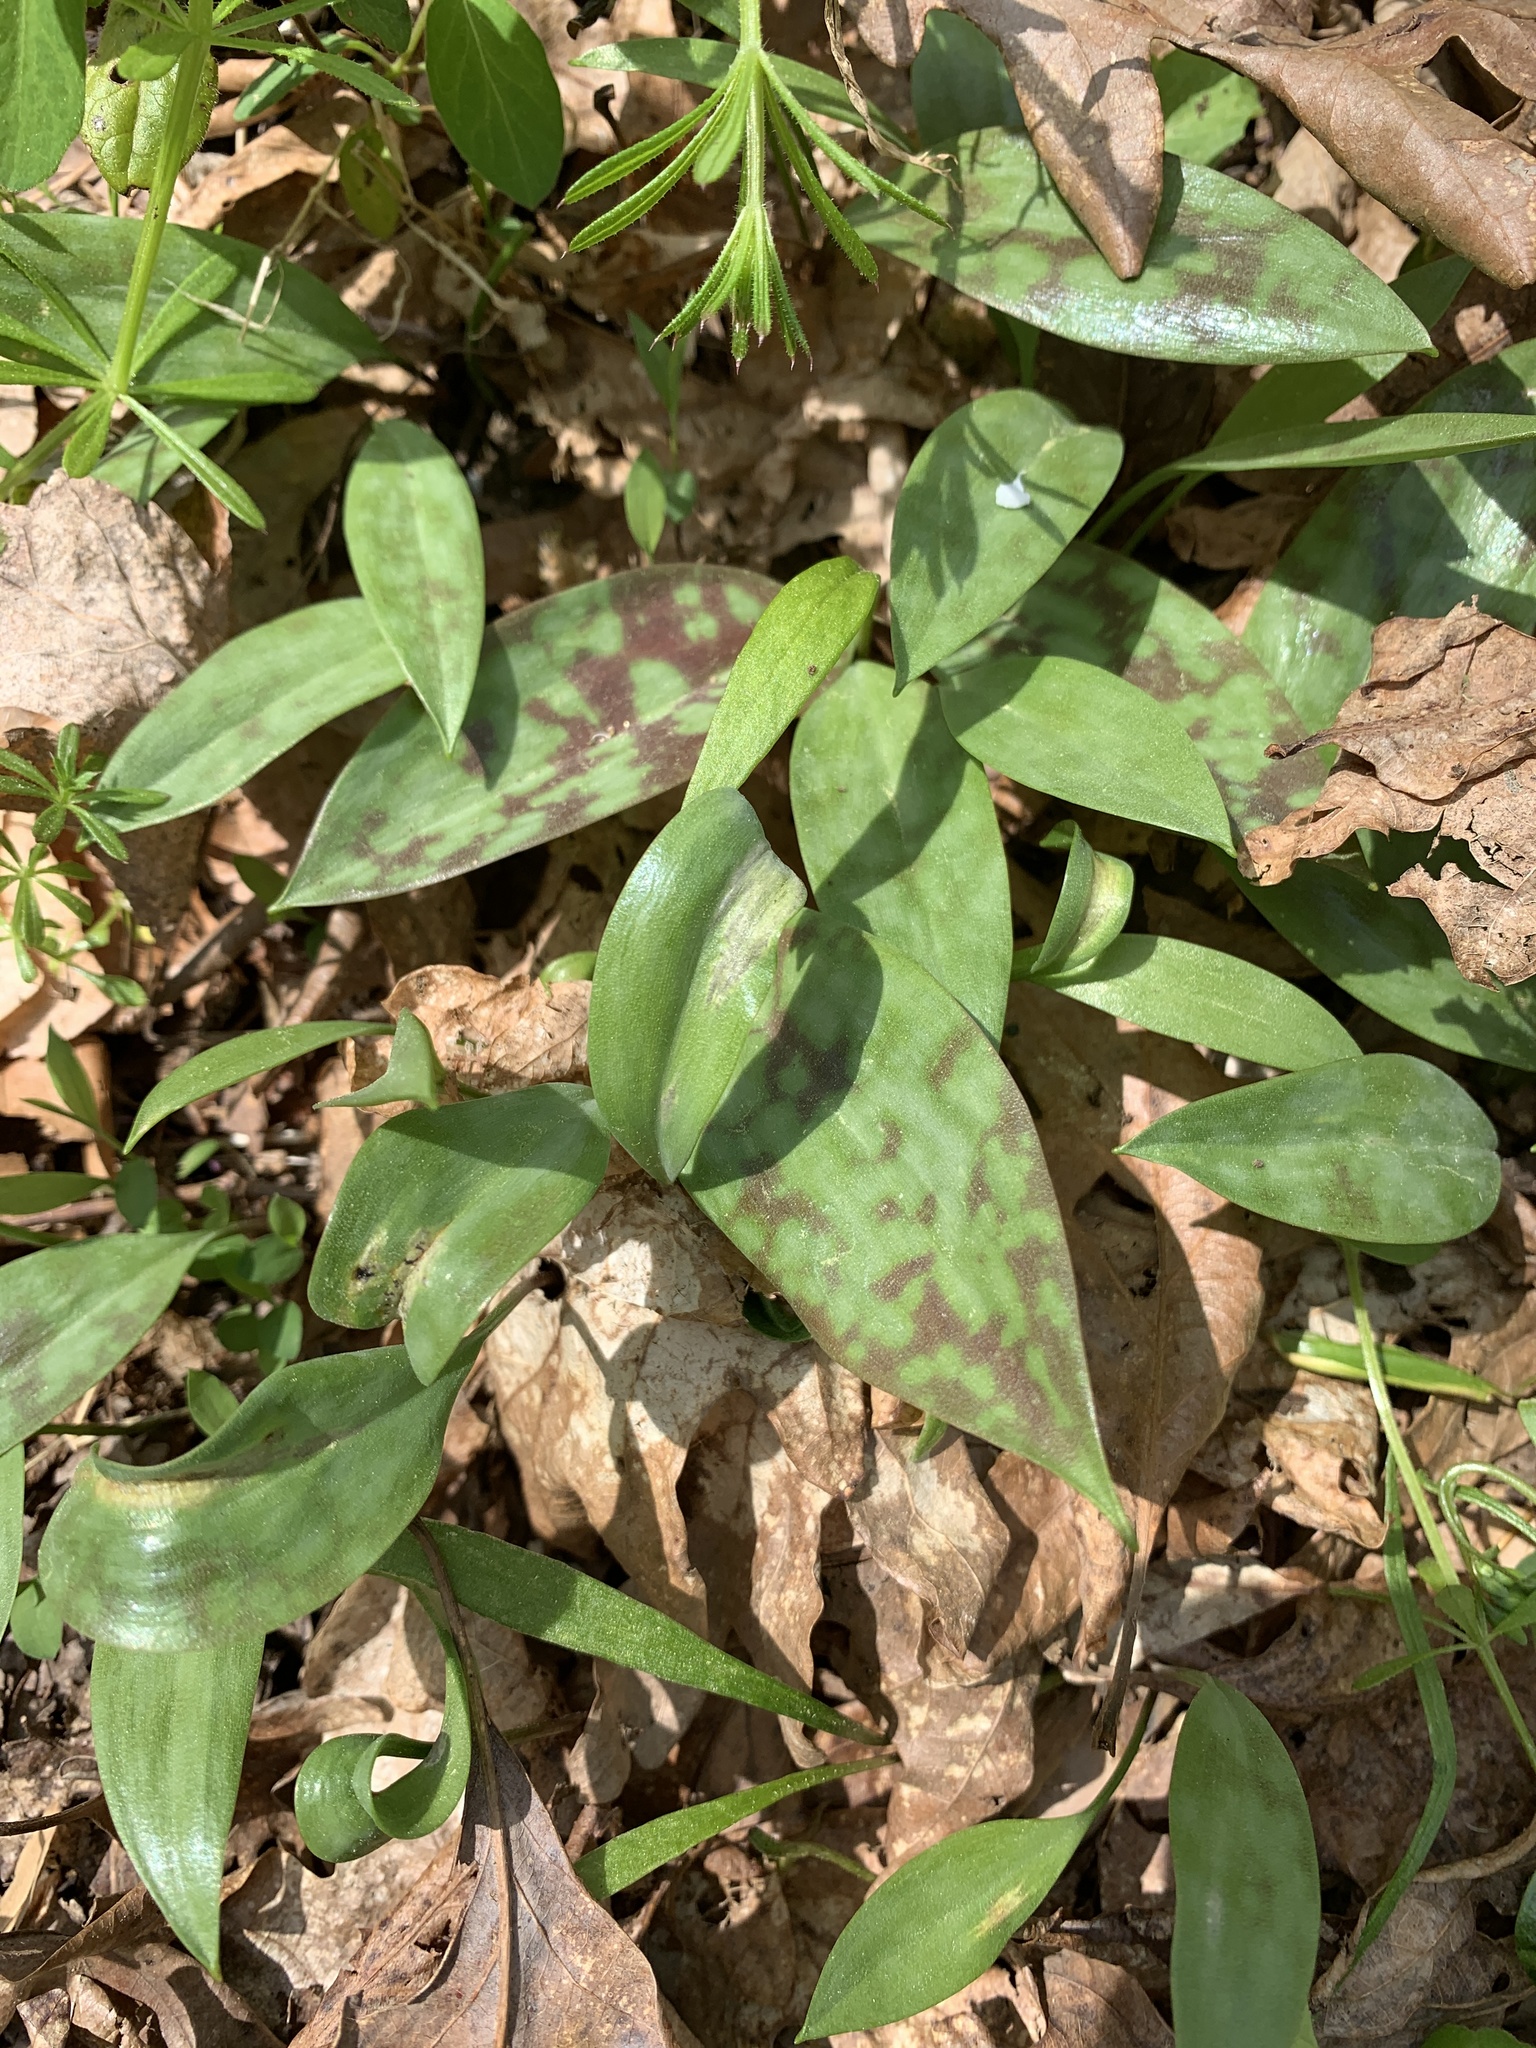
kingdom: Plantae
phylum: Tracheophyta
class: Liliopsida
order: Liliales
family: Liliaceae
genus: Erythronium
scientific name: Erythronium americanum
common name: Yellow adder's-tongue
